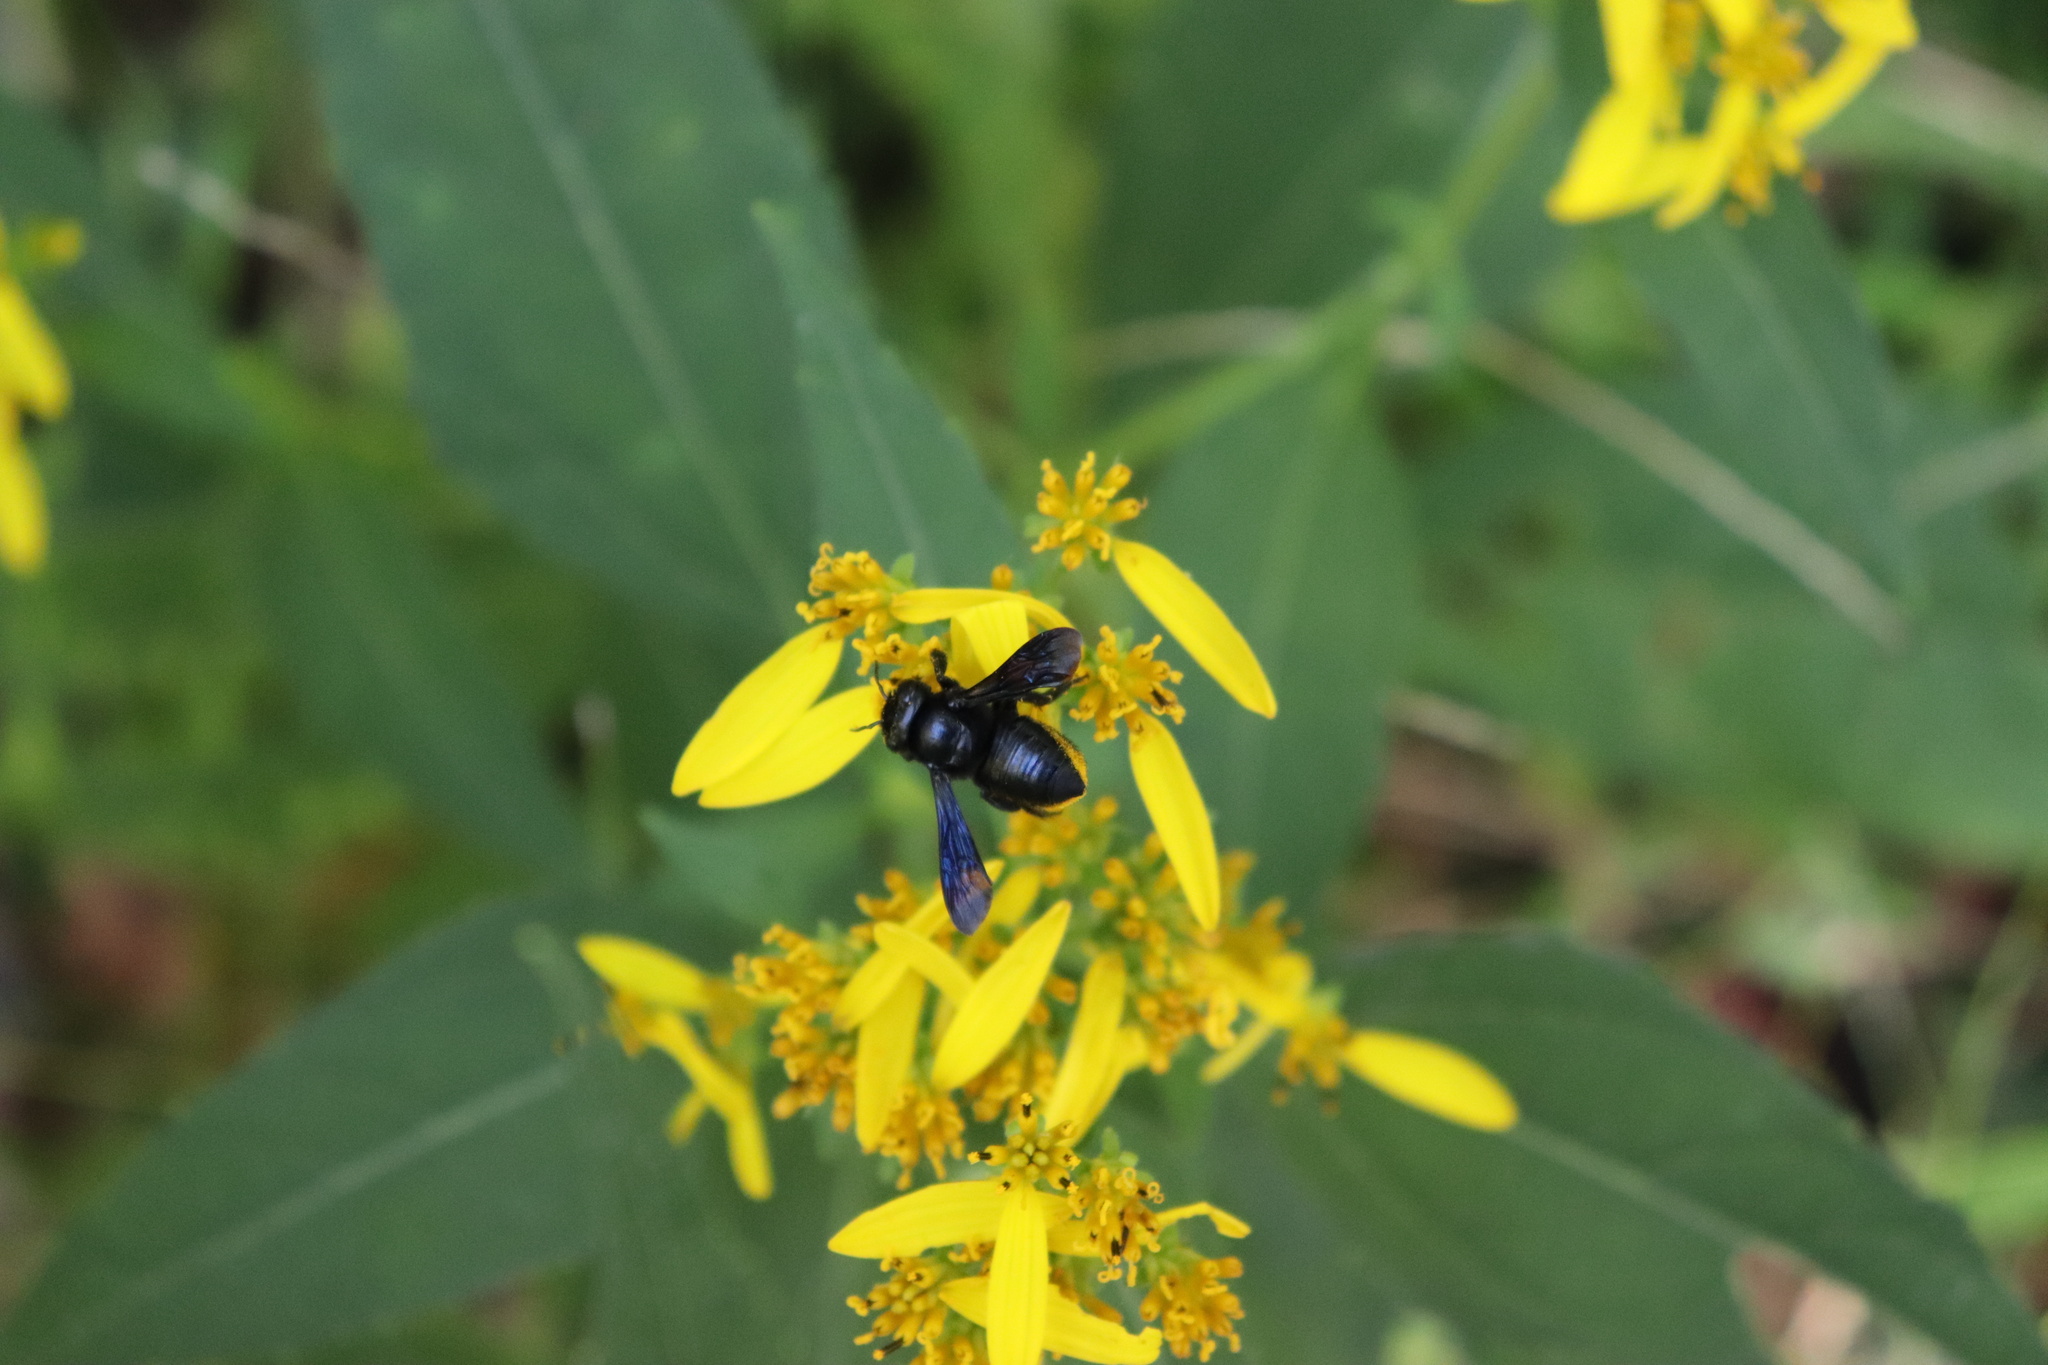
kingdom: Animalia
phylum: Arthropoda
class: Insecta
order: Hymenoptera
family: Megachilidae
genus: Megachile
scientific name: Megachile xylocopoides
